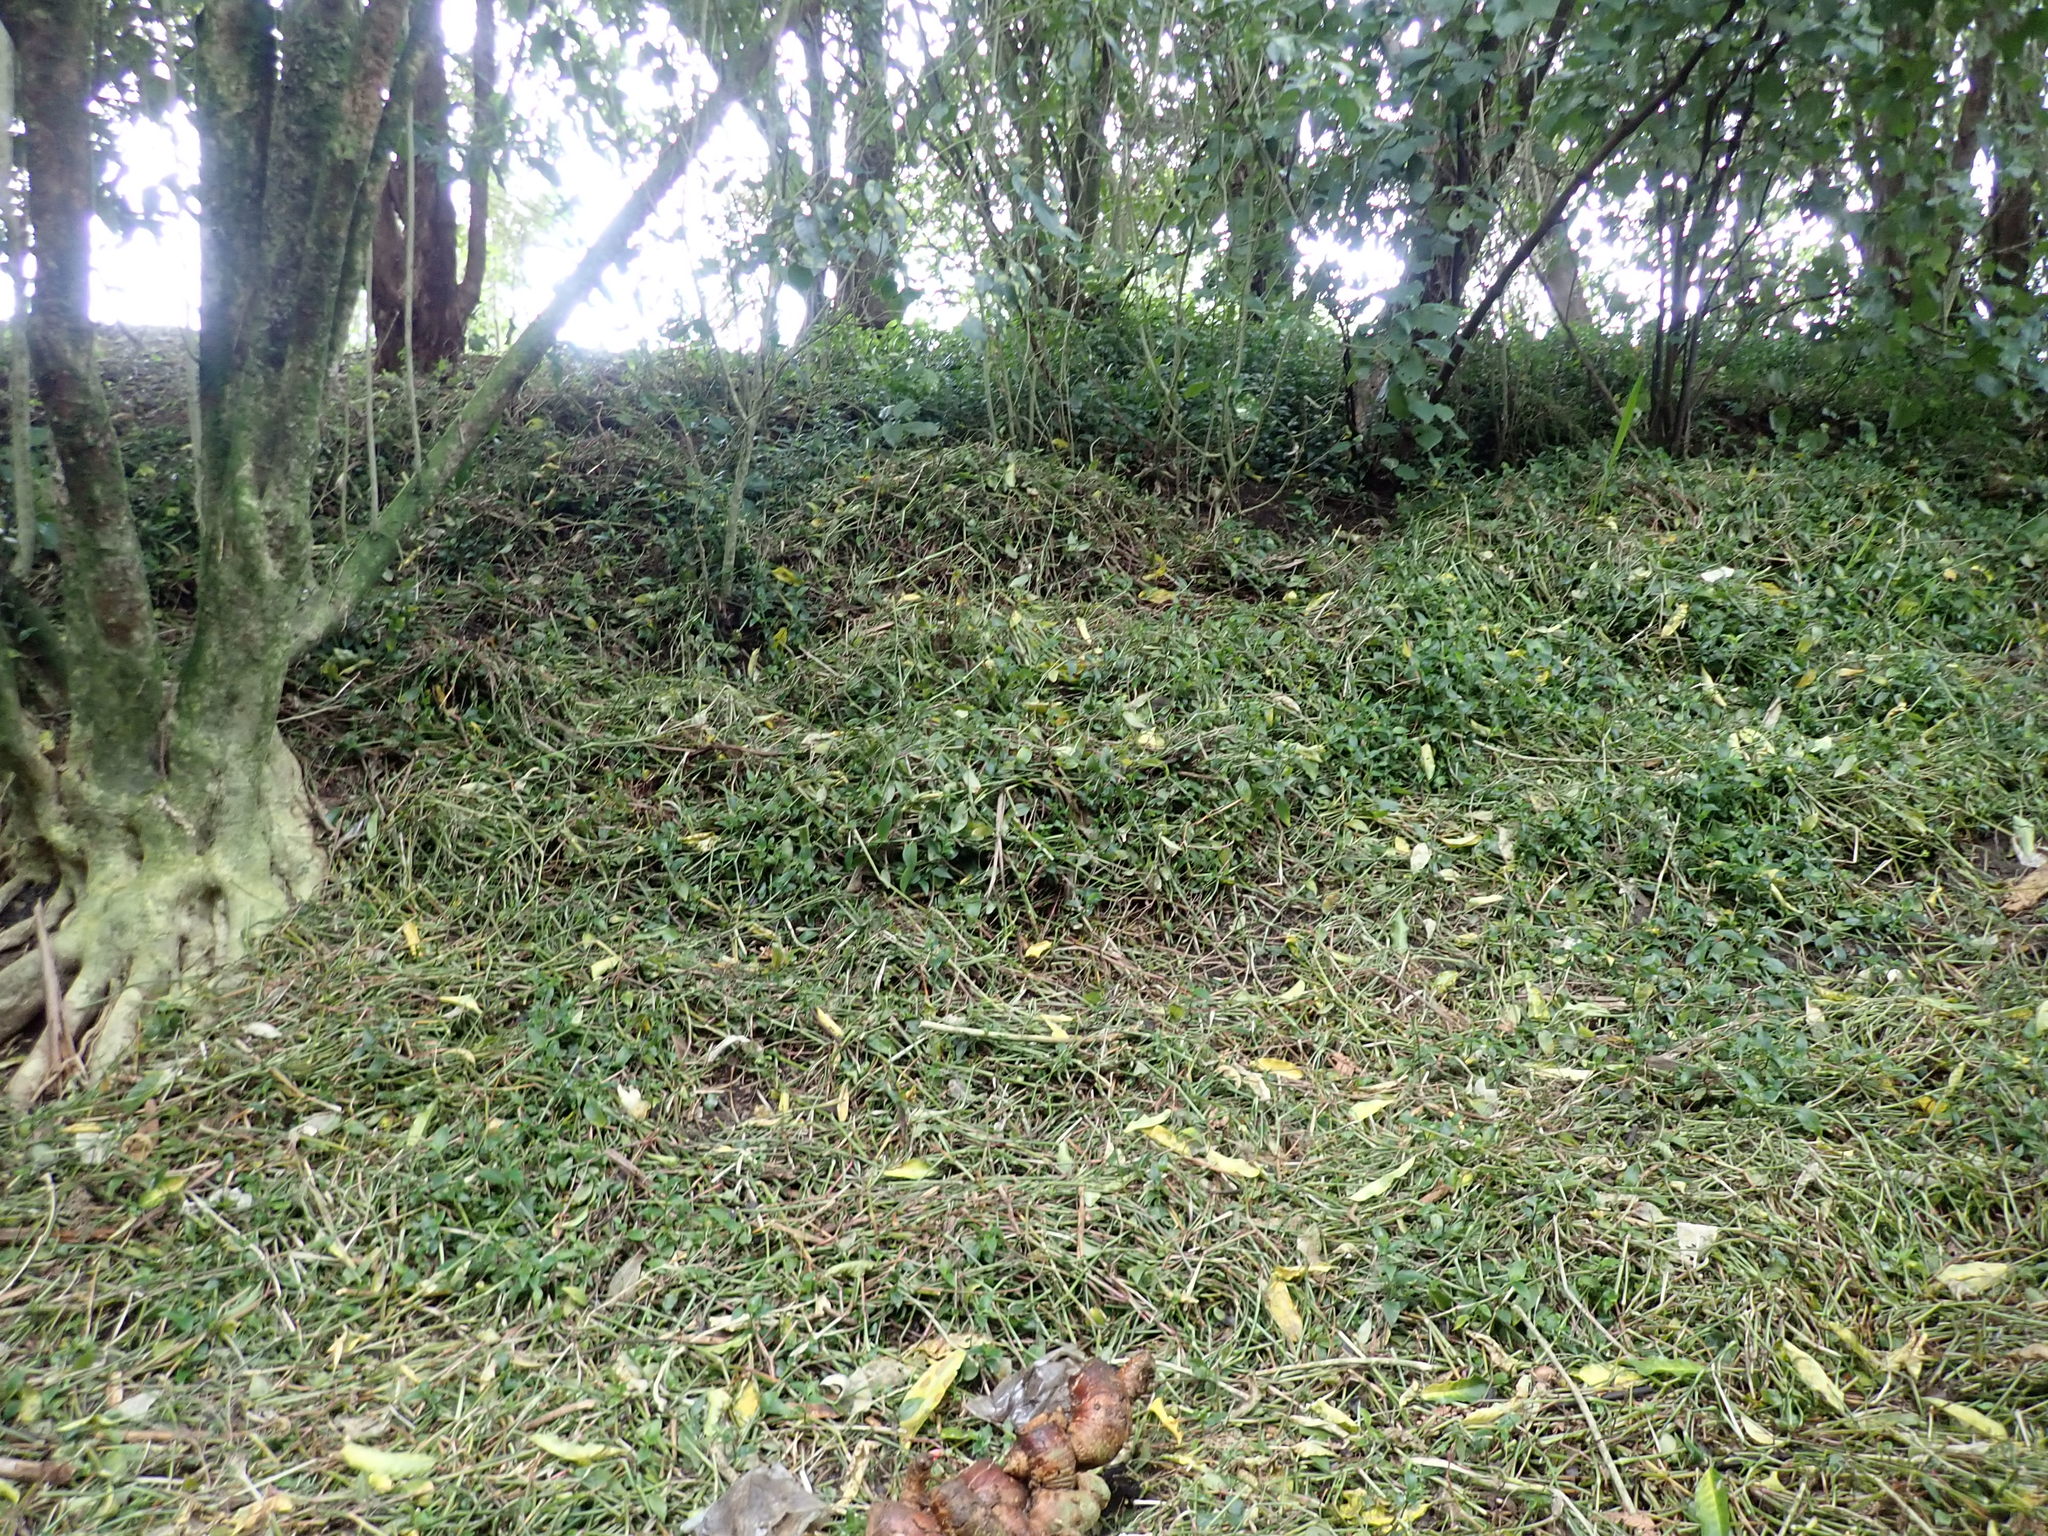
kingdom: Plantae
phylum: Tracheophyta
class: Liliopsida
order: Commelinales
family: Commelinaceae
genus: Tradescantia
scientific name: Tradescantia fluminensis
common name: Wandering-jew
